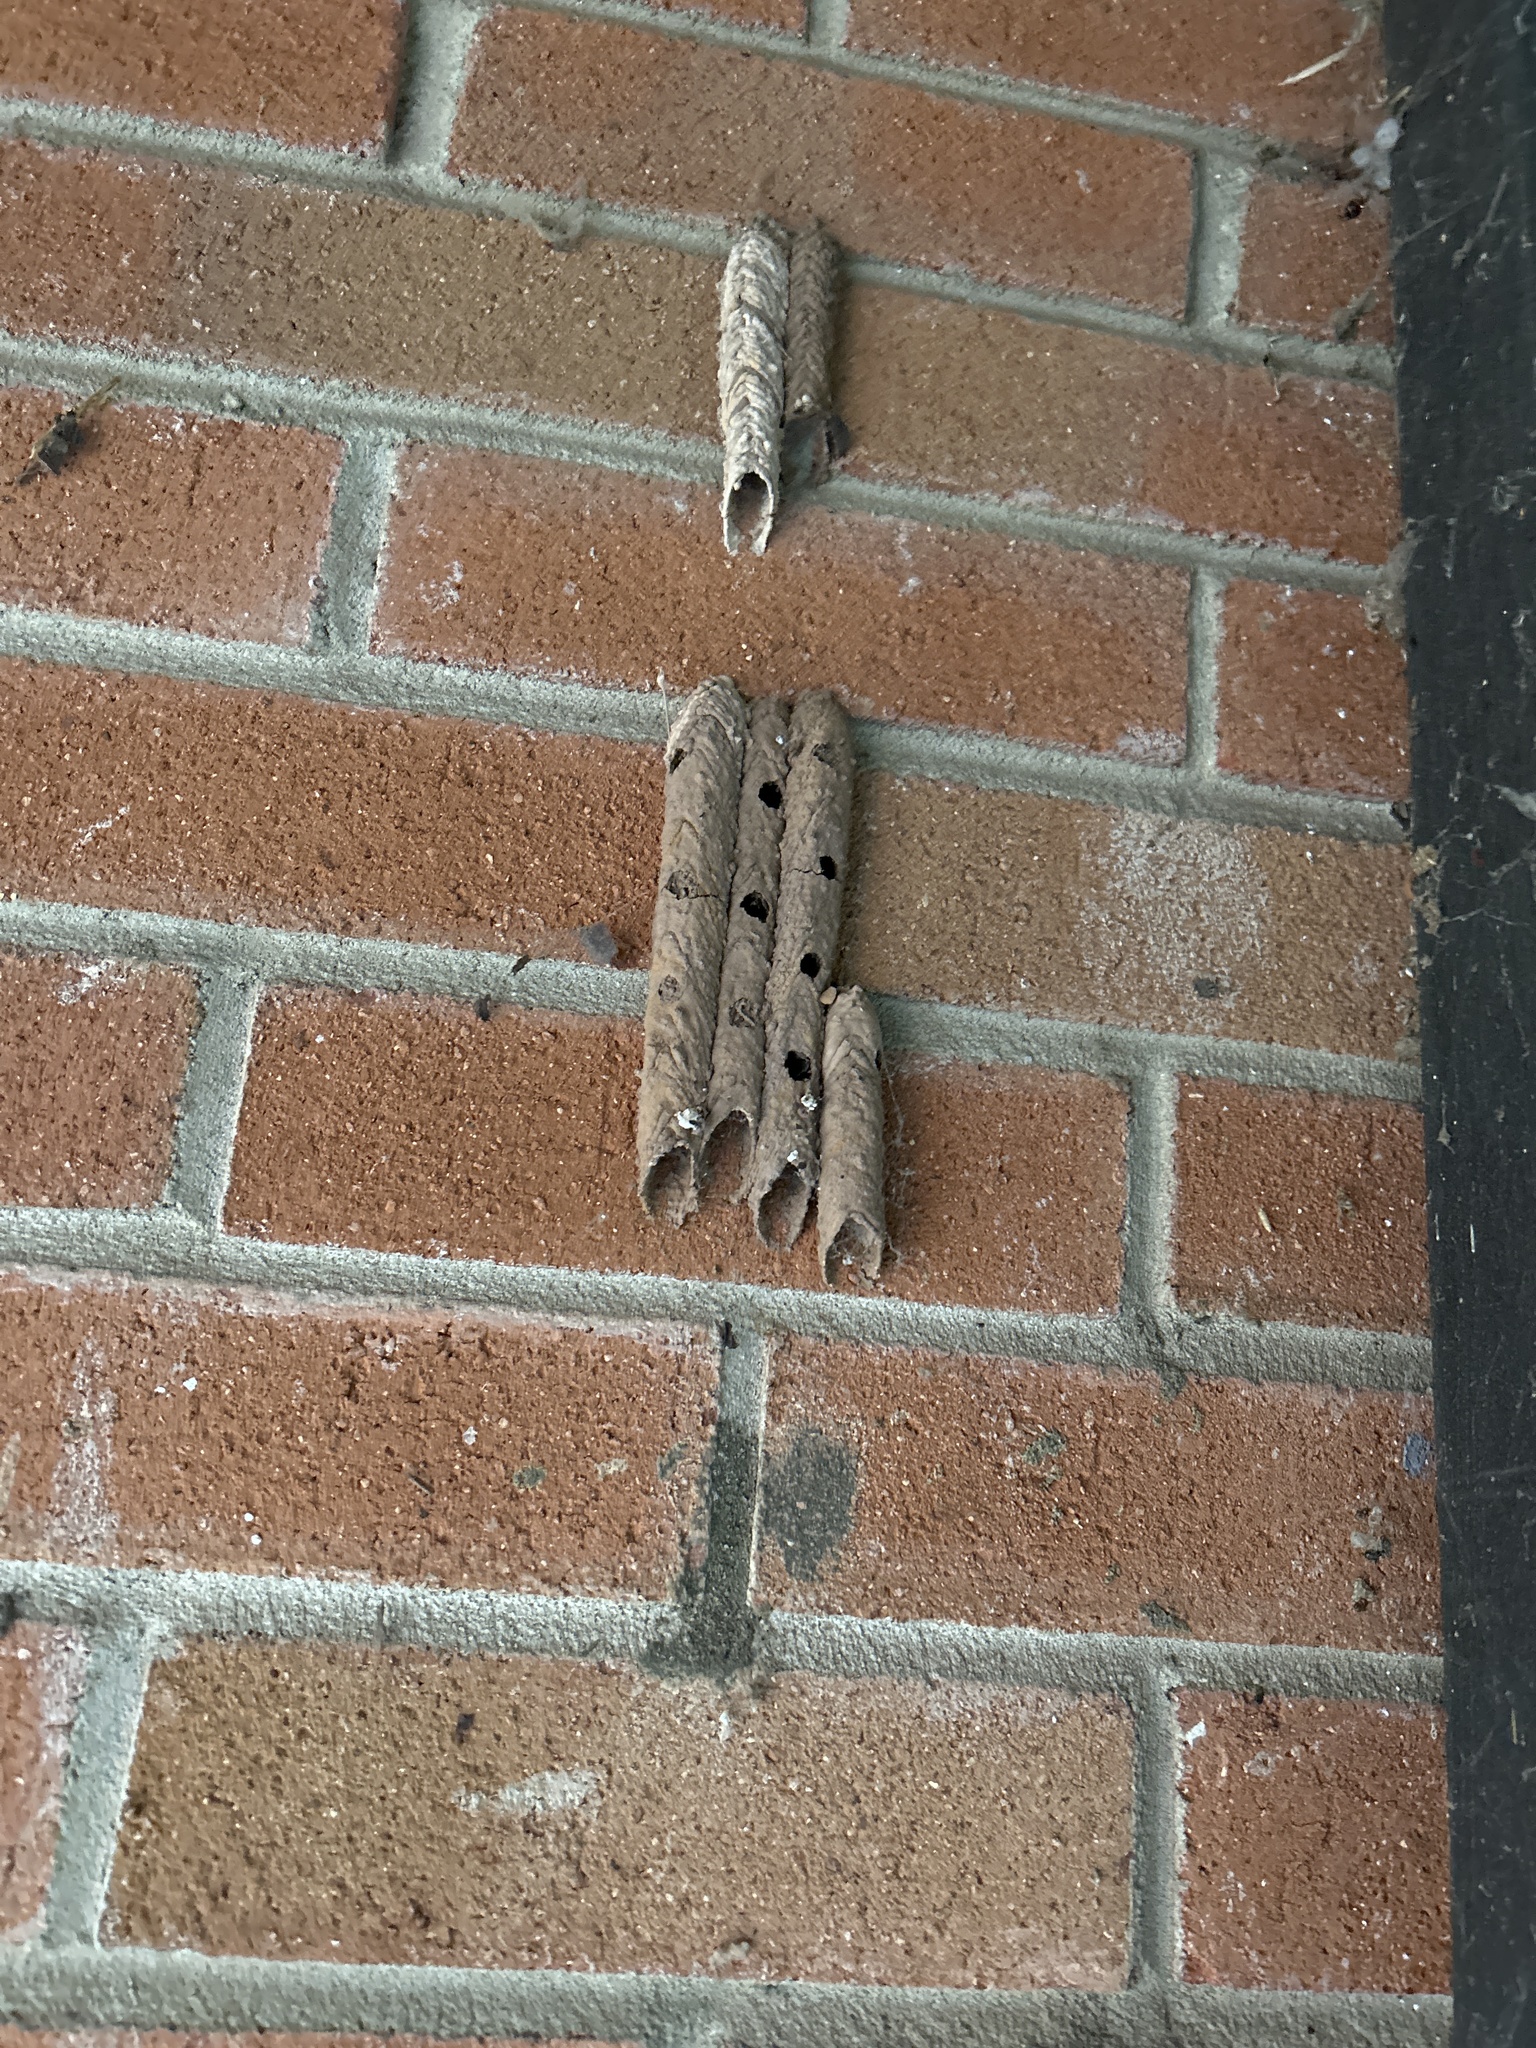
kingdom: Animalia
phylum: Arthropoda
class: Insecta
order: Hymenoptera
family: Crabronidae
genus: Trypoxylon
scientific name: Trypoxylon politum
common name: Organ-pipe mud-dauber wasp
